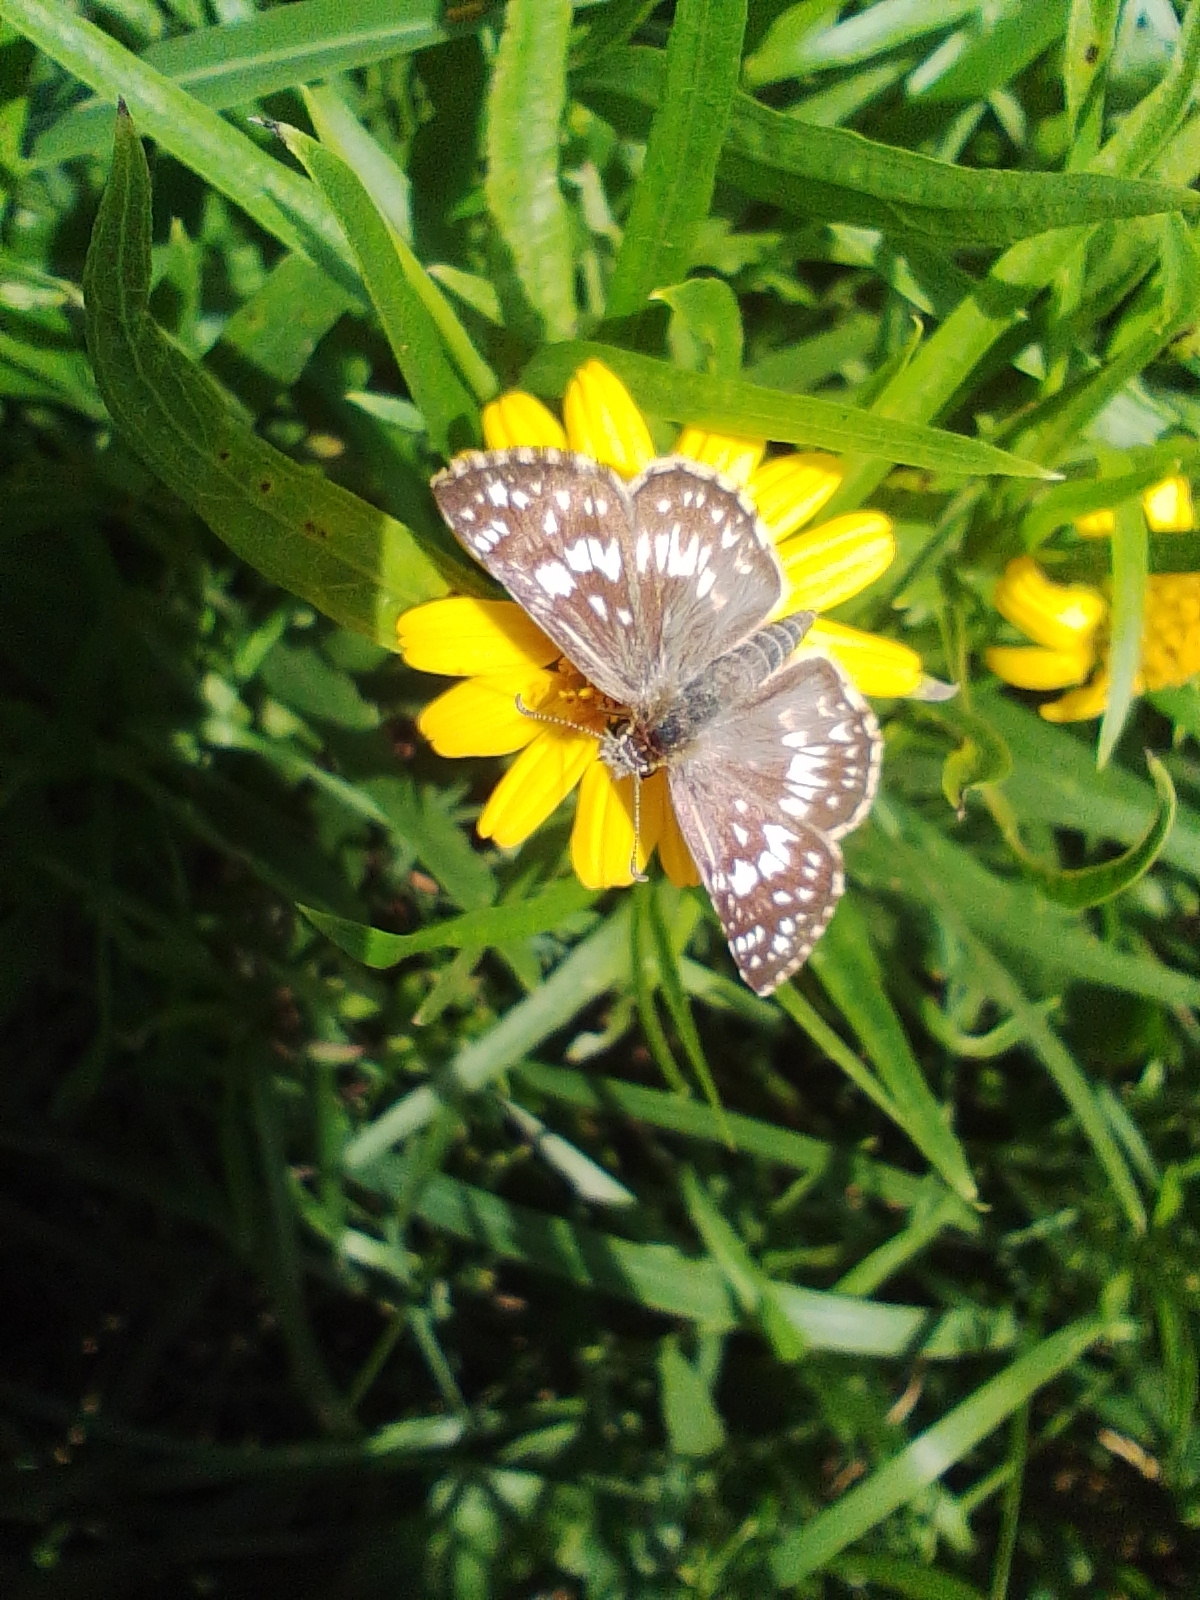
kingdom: Animalia
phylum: Arthropoda
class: Insecta
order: Lepidoptera
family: Hesperiidae
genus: Burnsius
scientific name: Burnsius orcynoides
